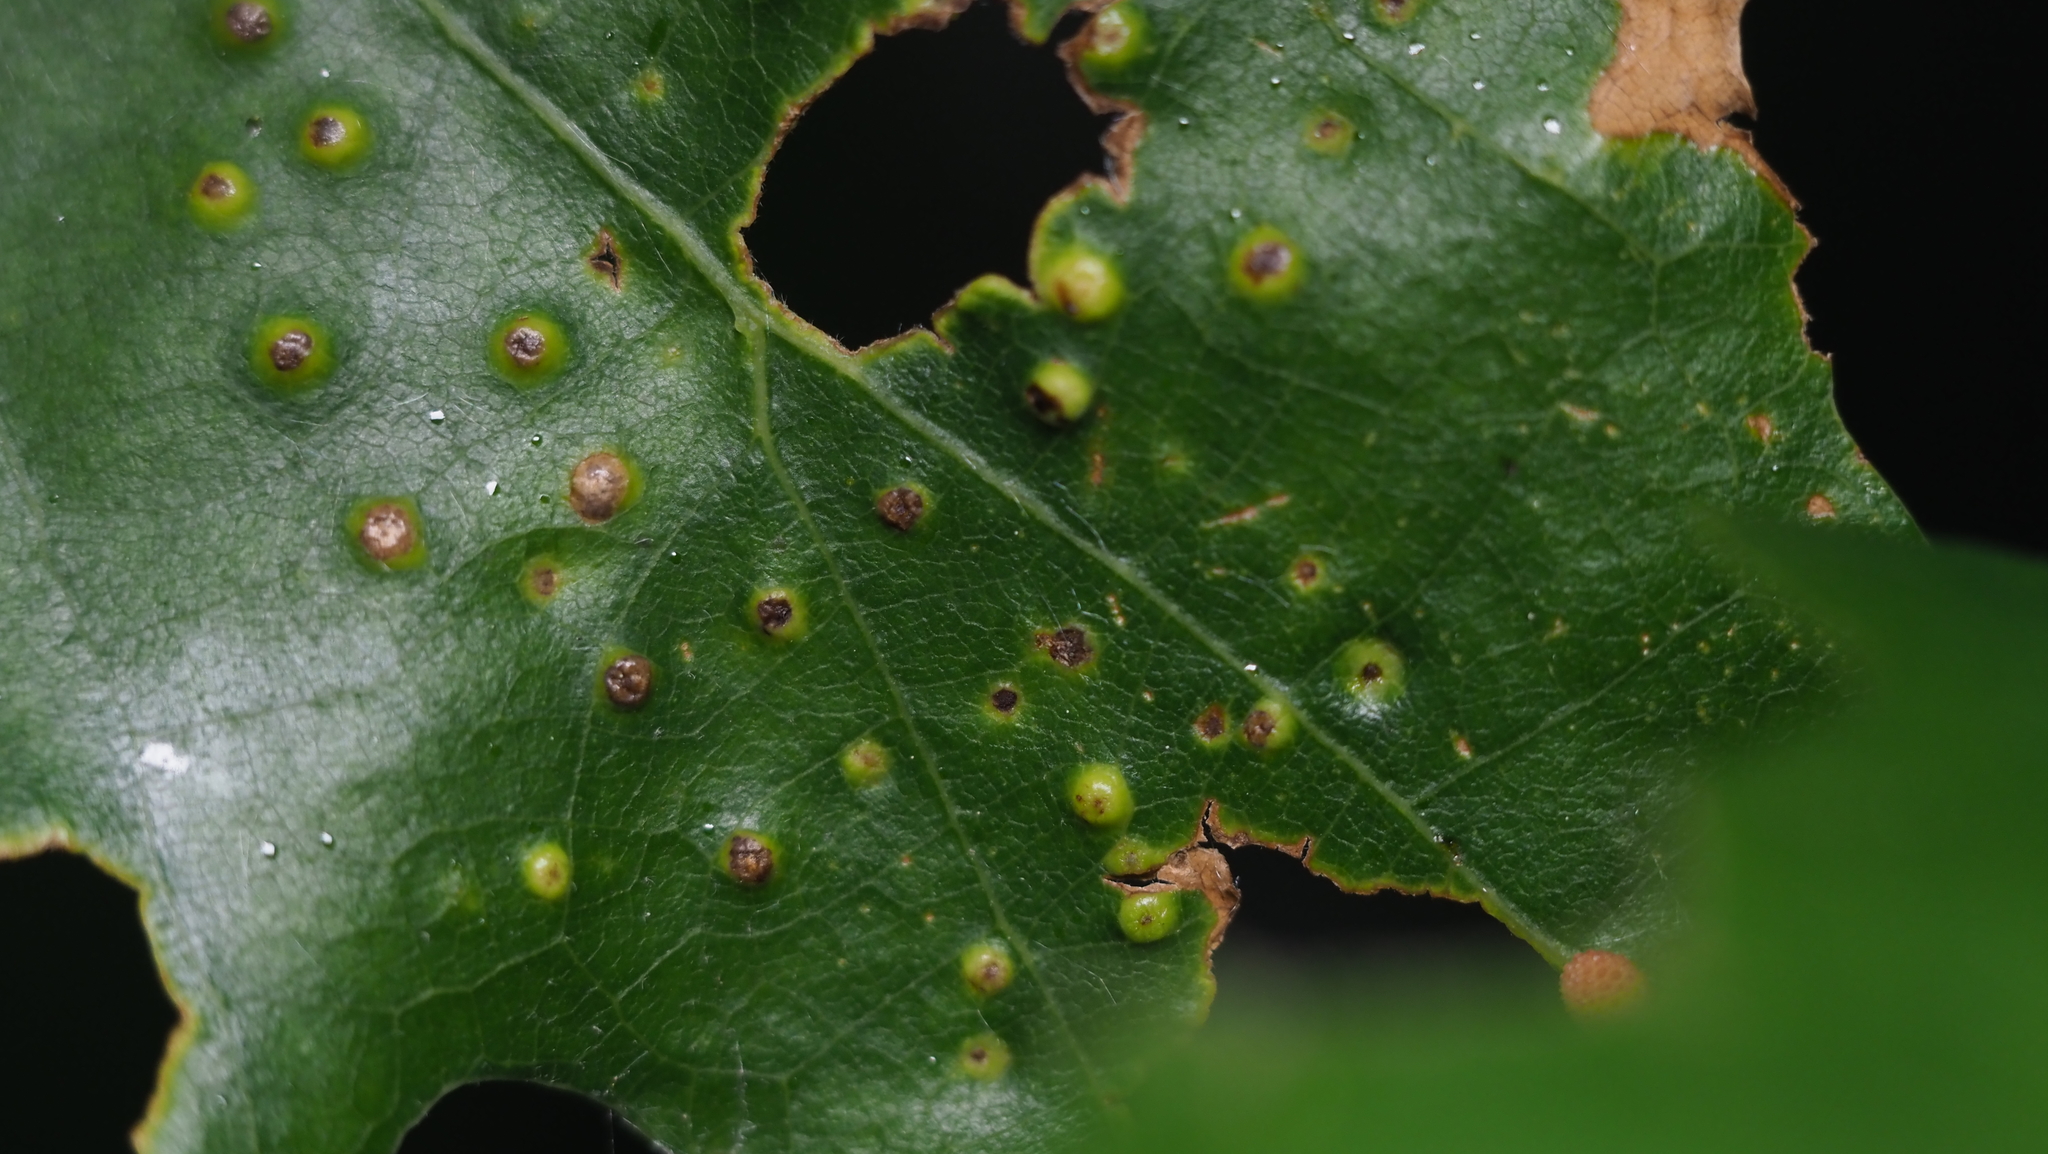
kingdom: Animalia
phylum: Arthropoda
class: Insecta
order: Hymenoptera
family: Cynipidae
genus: Neuroterus
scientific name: Neuroterus saltarius
